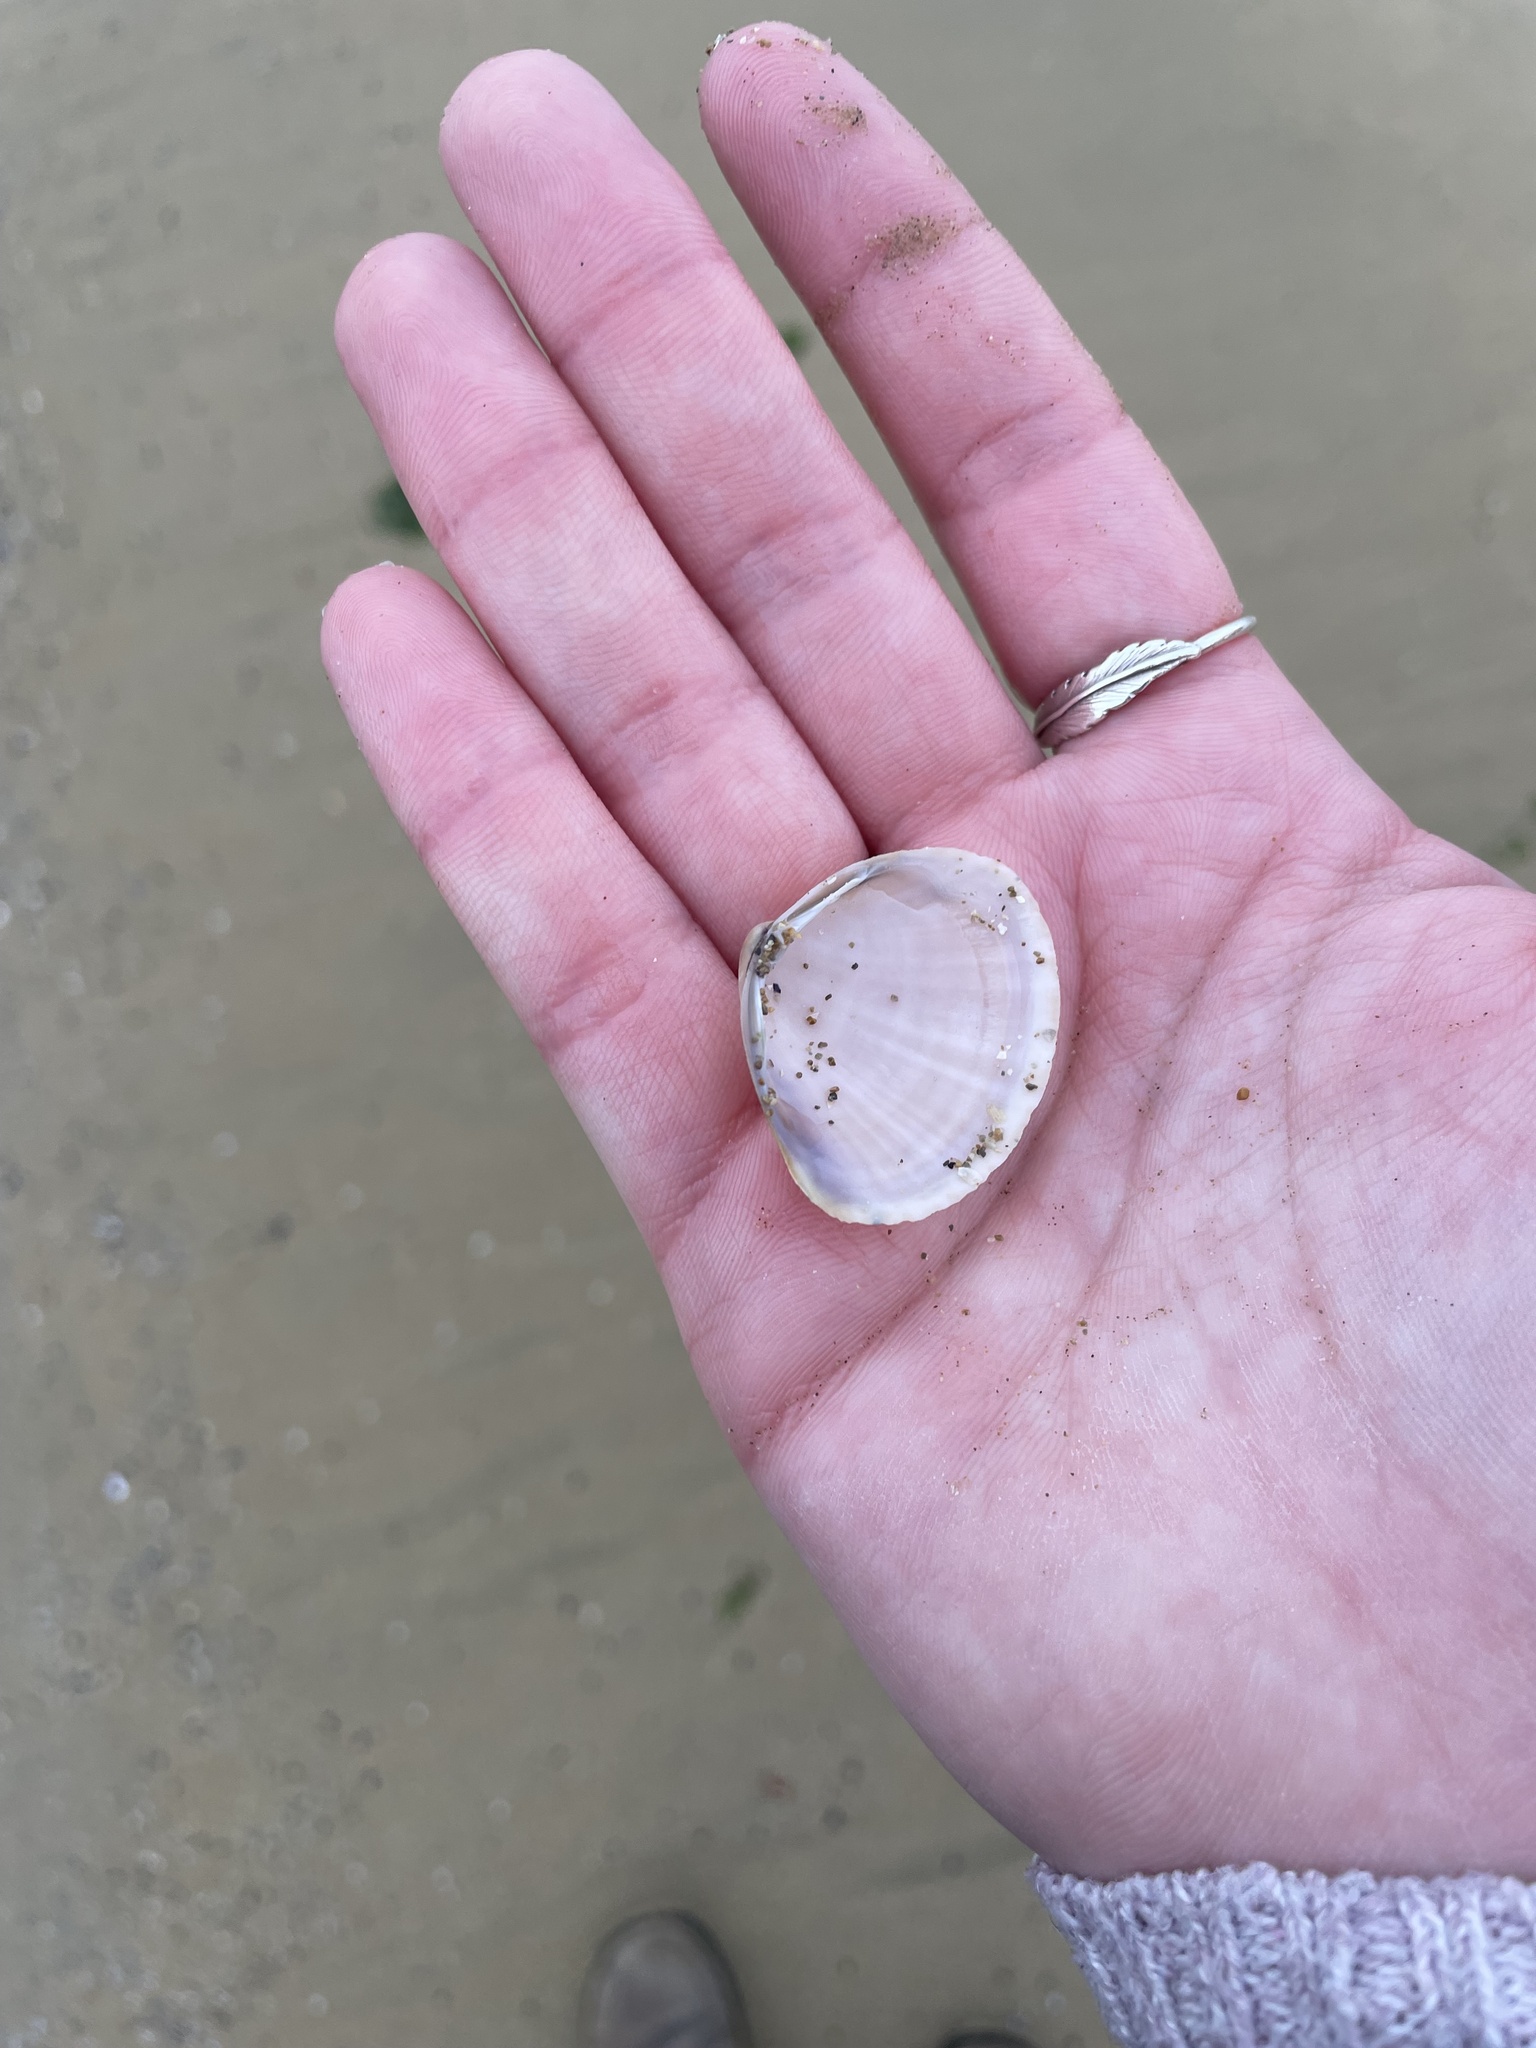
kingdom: Animalia
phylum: Mollusca
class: Bivalvia
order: Venerida
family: Mactridae
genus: Mactra
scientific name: Mactra stultorum
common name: Rayed trough shell
